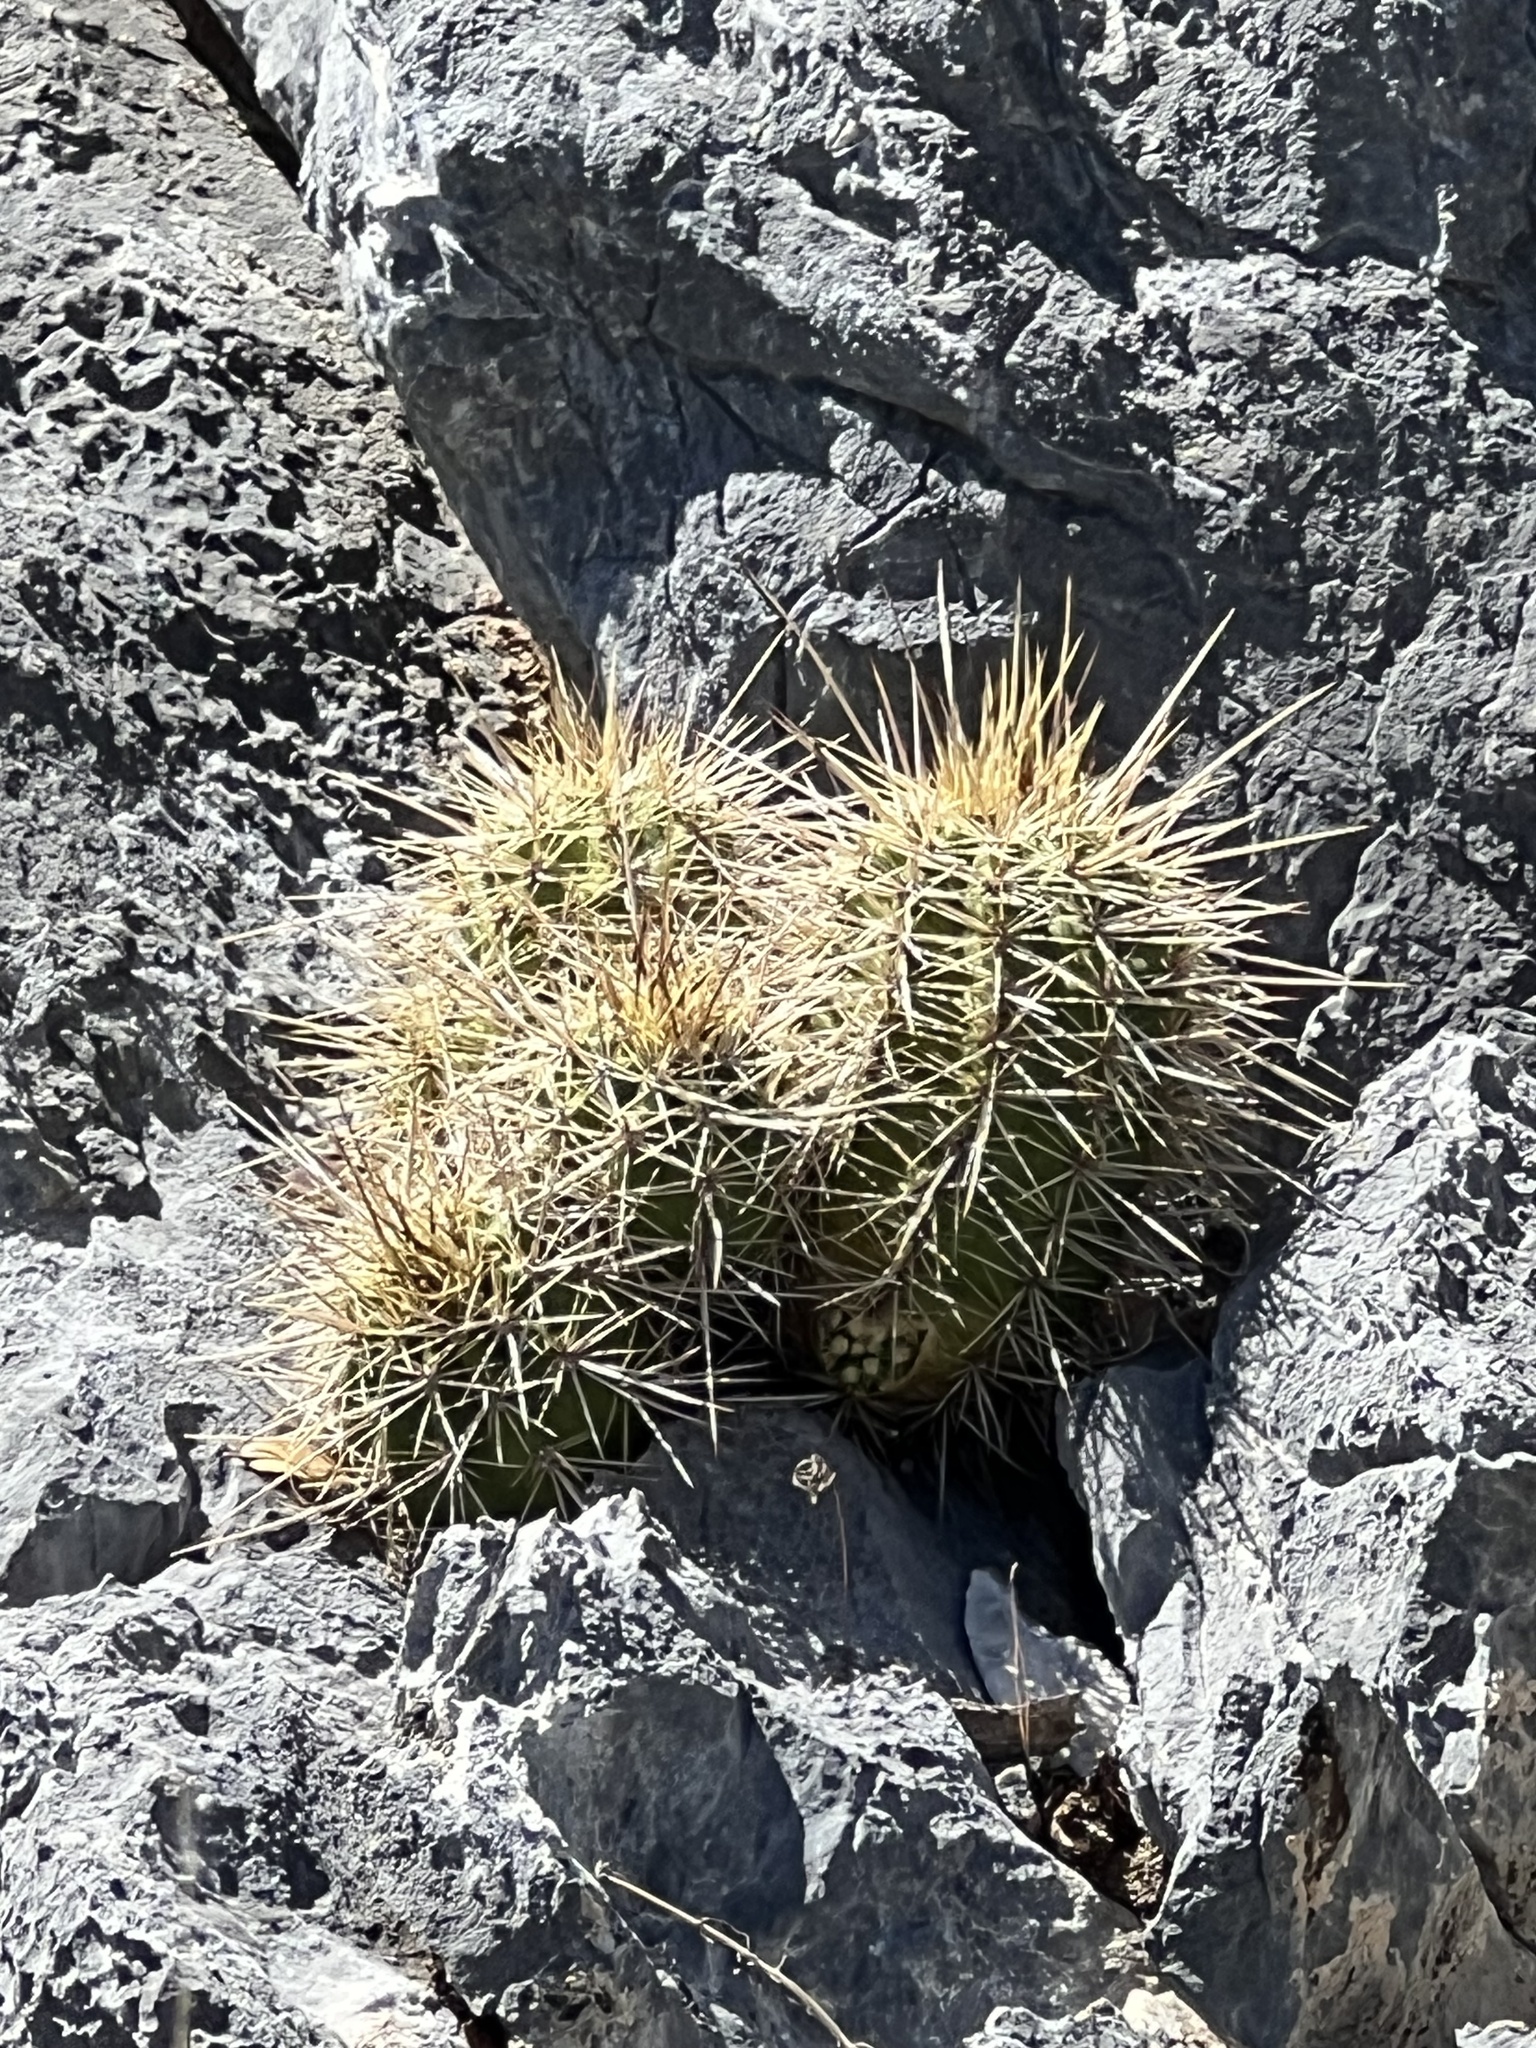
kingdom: Plantae
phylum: Tracheophyta
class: Magnoliopsida
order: Caryophyllales
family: Cactaceae
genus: Echinocereus
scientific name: Echinocereus arizonicus
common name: Arizona hedgehog cactus
